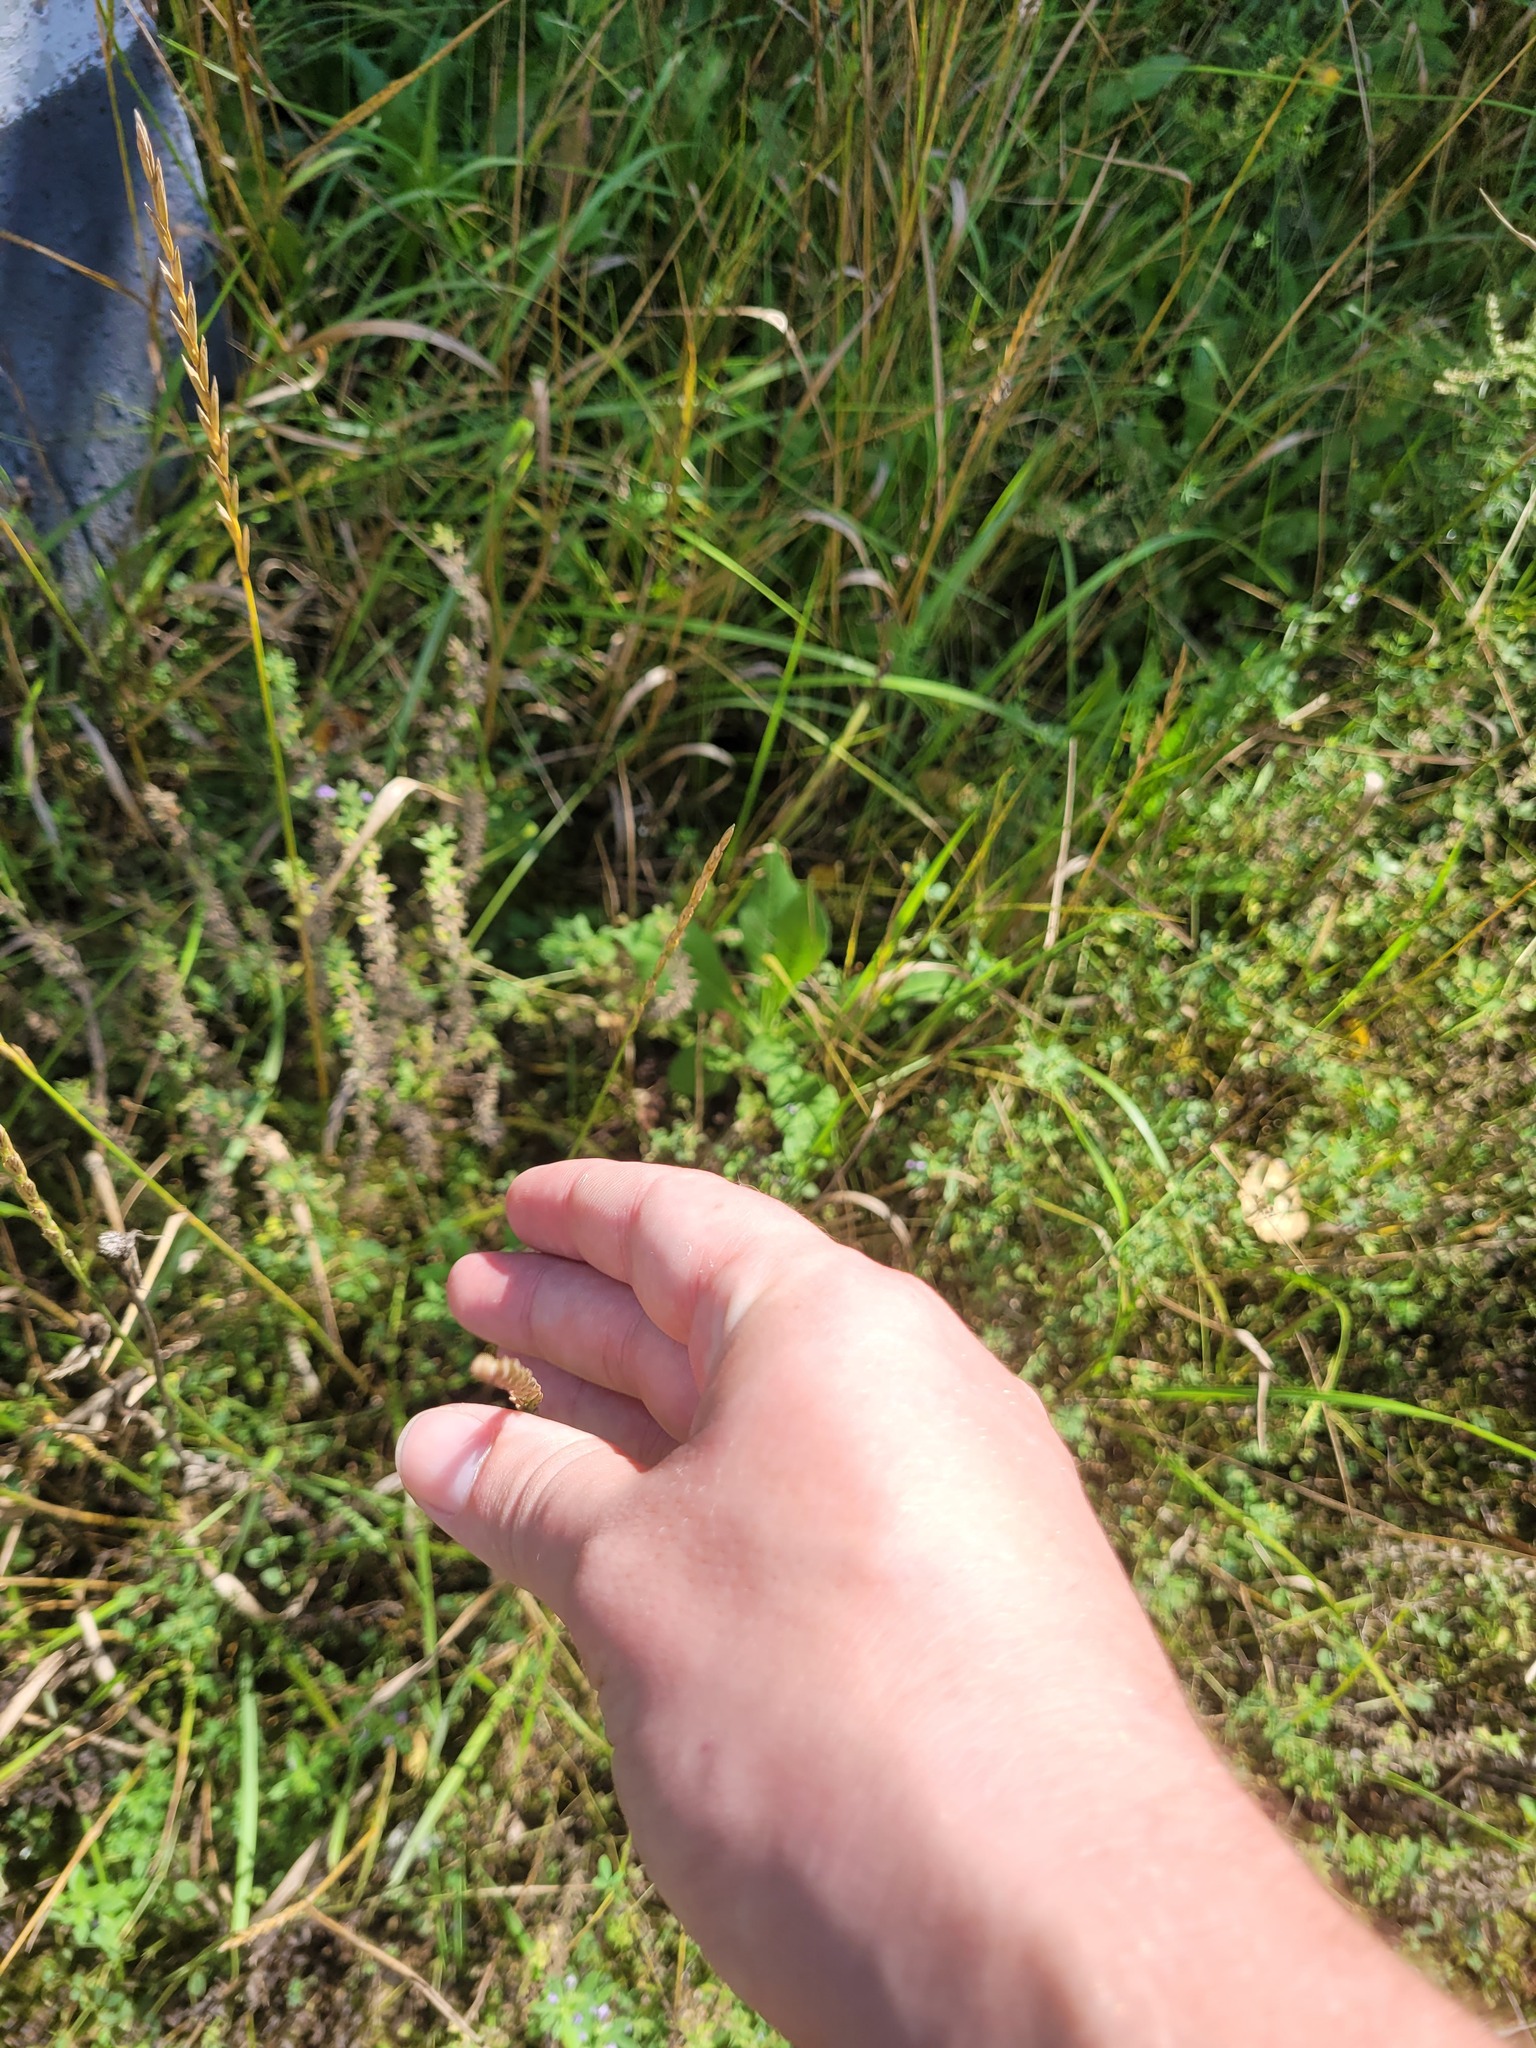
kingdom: Plantae
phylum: Tracheophyta
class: Liliopsida
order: Poales
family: Poaceae
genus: Elymus
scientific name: Elymus repens
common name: Quackgrass
